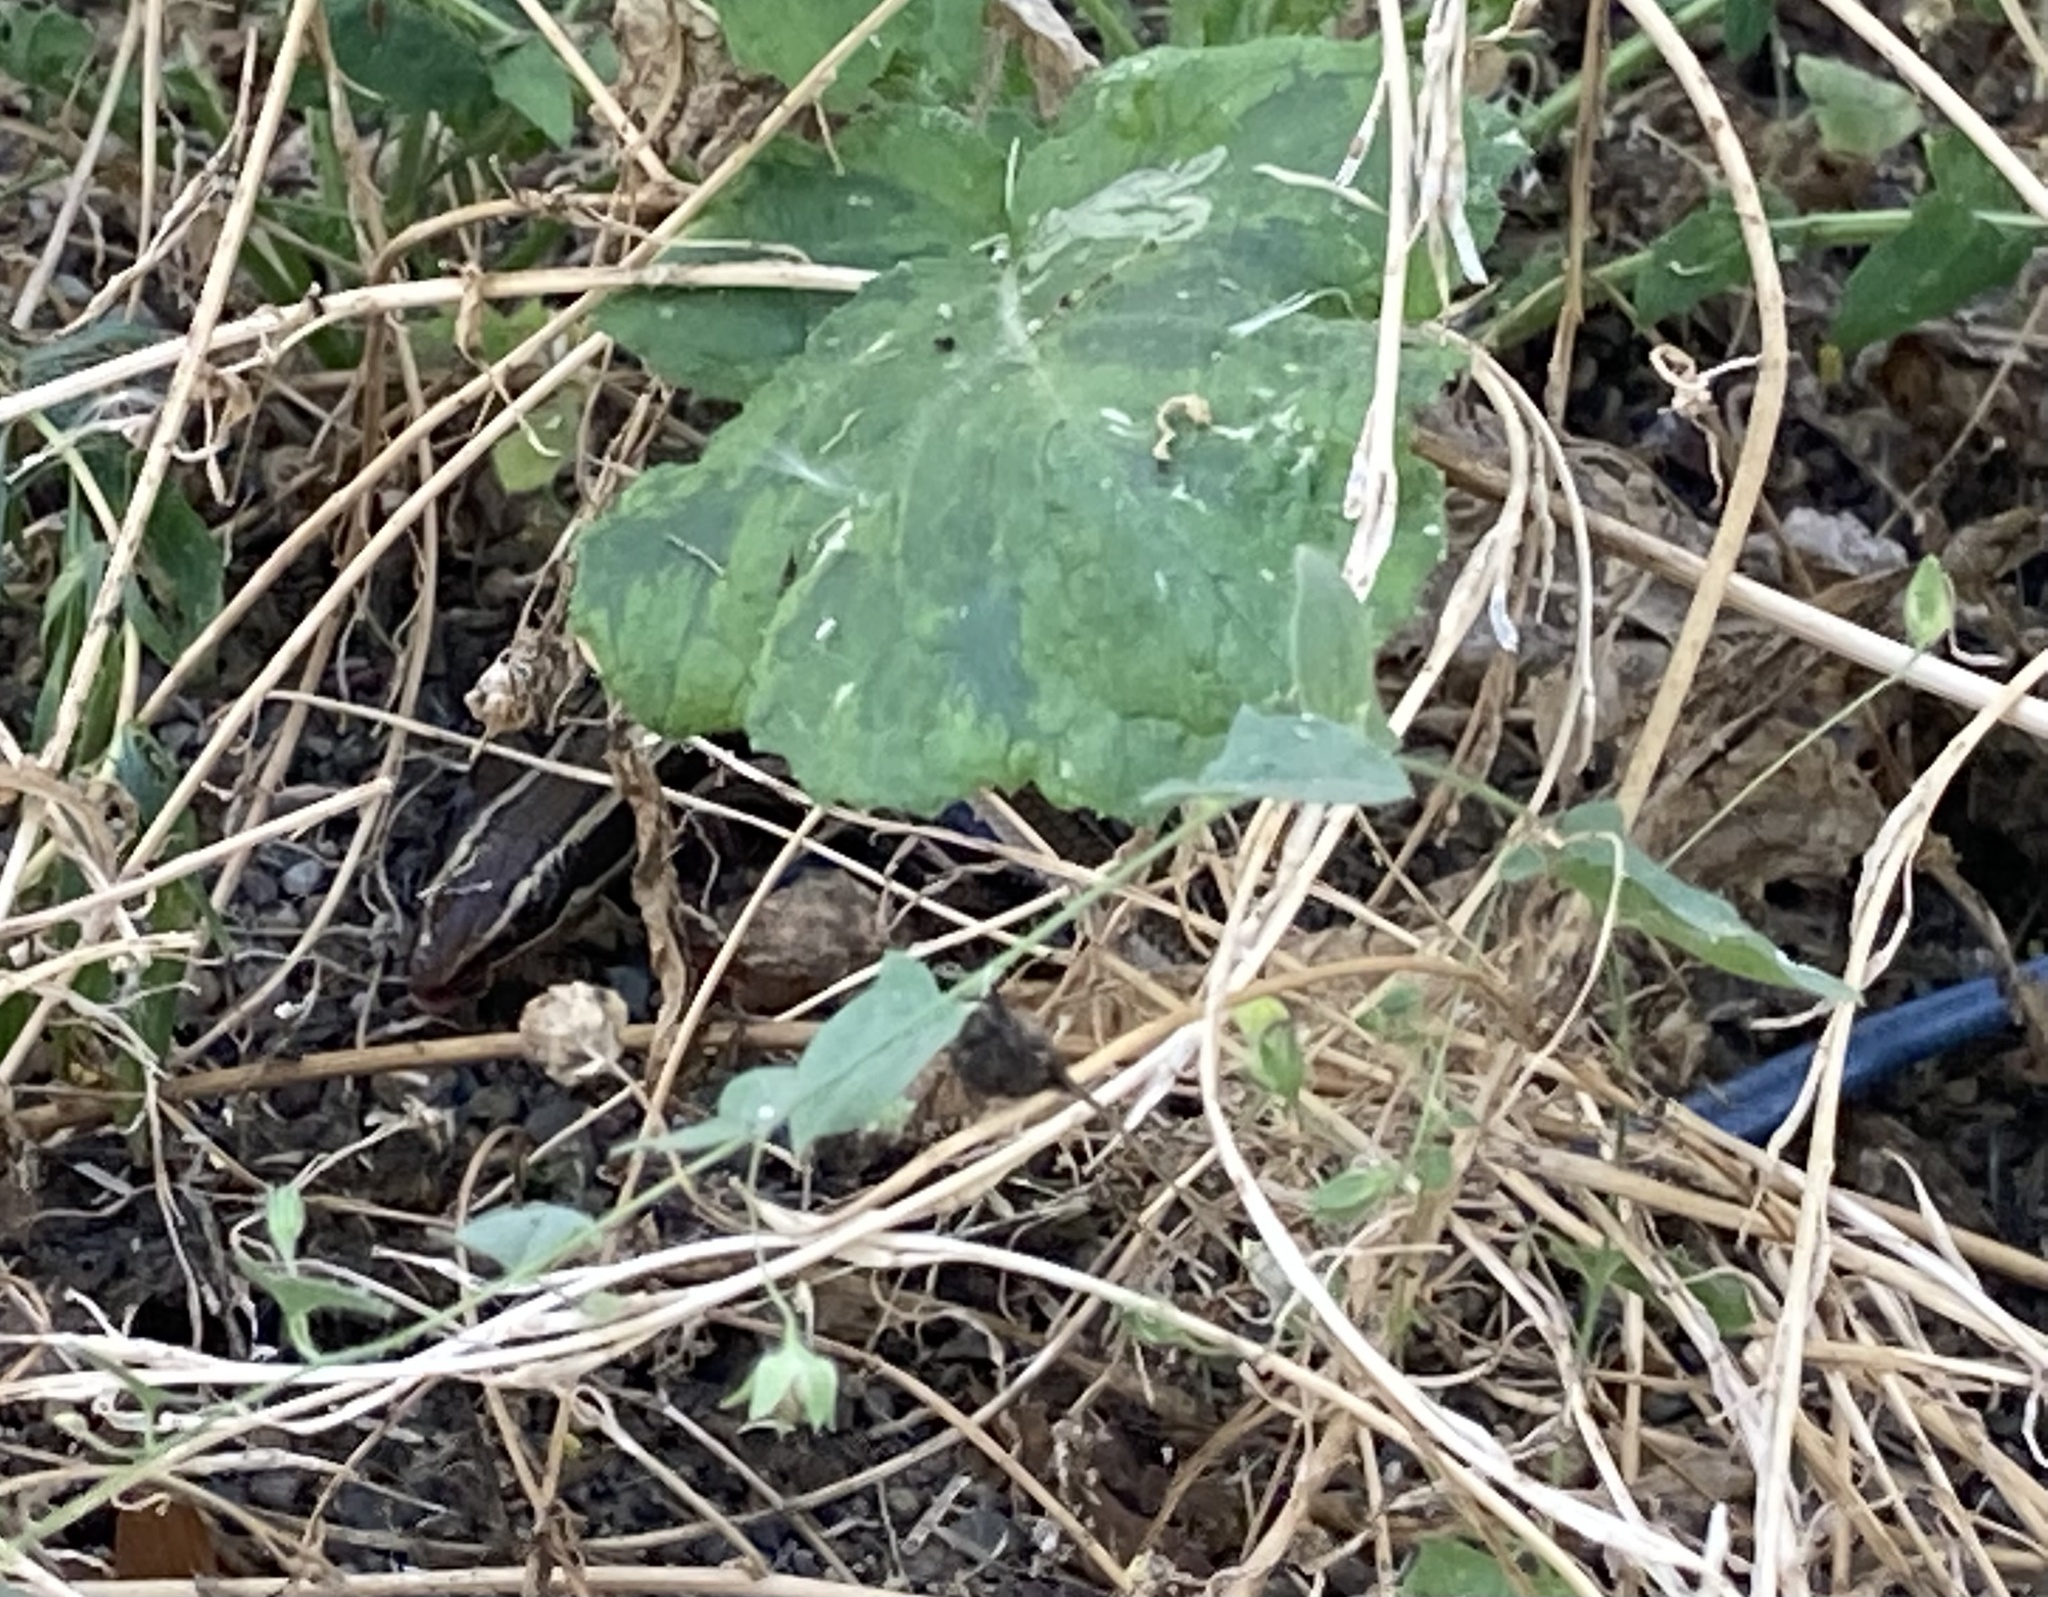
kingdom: Animalia
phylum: Chordata
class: Squamata
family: Scincidae
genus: Plestiodon
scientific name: Plestiodon skiltonianus
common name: Coronado island skink [interparietalis]
